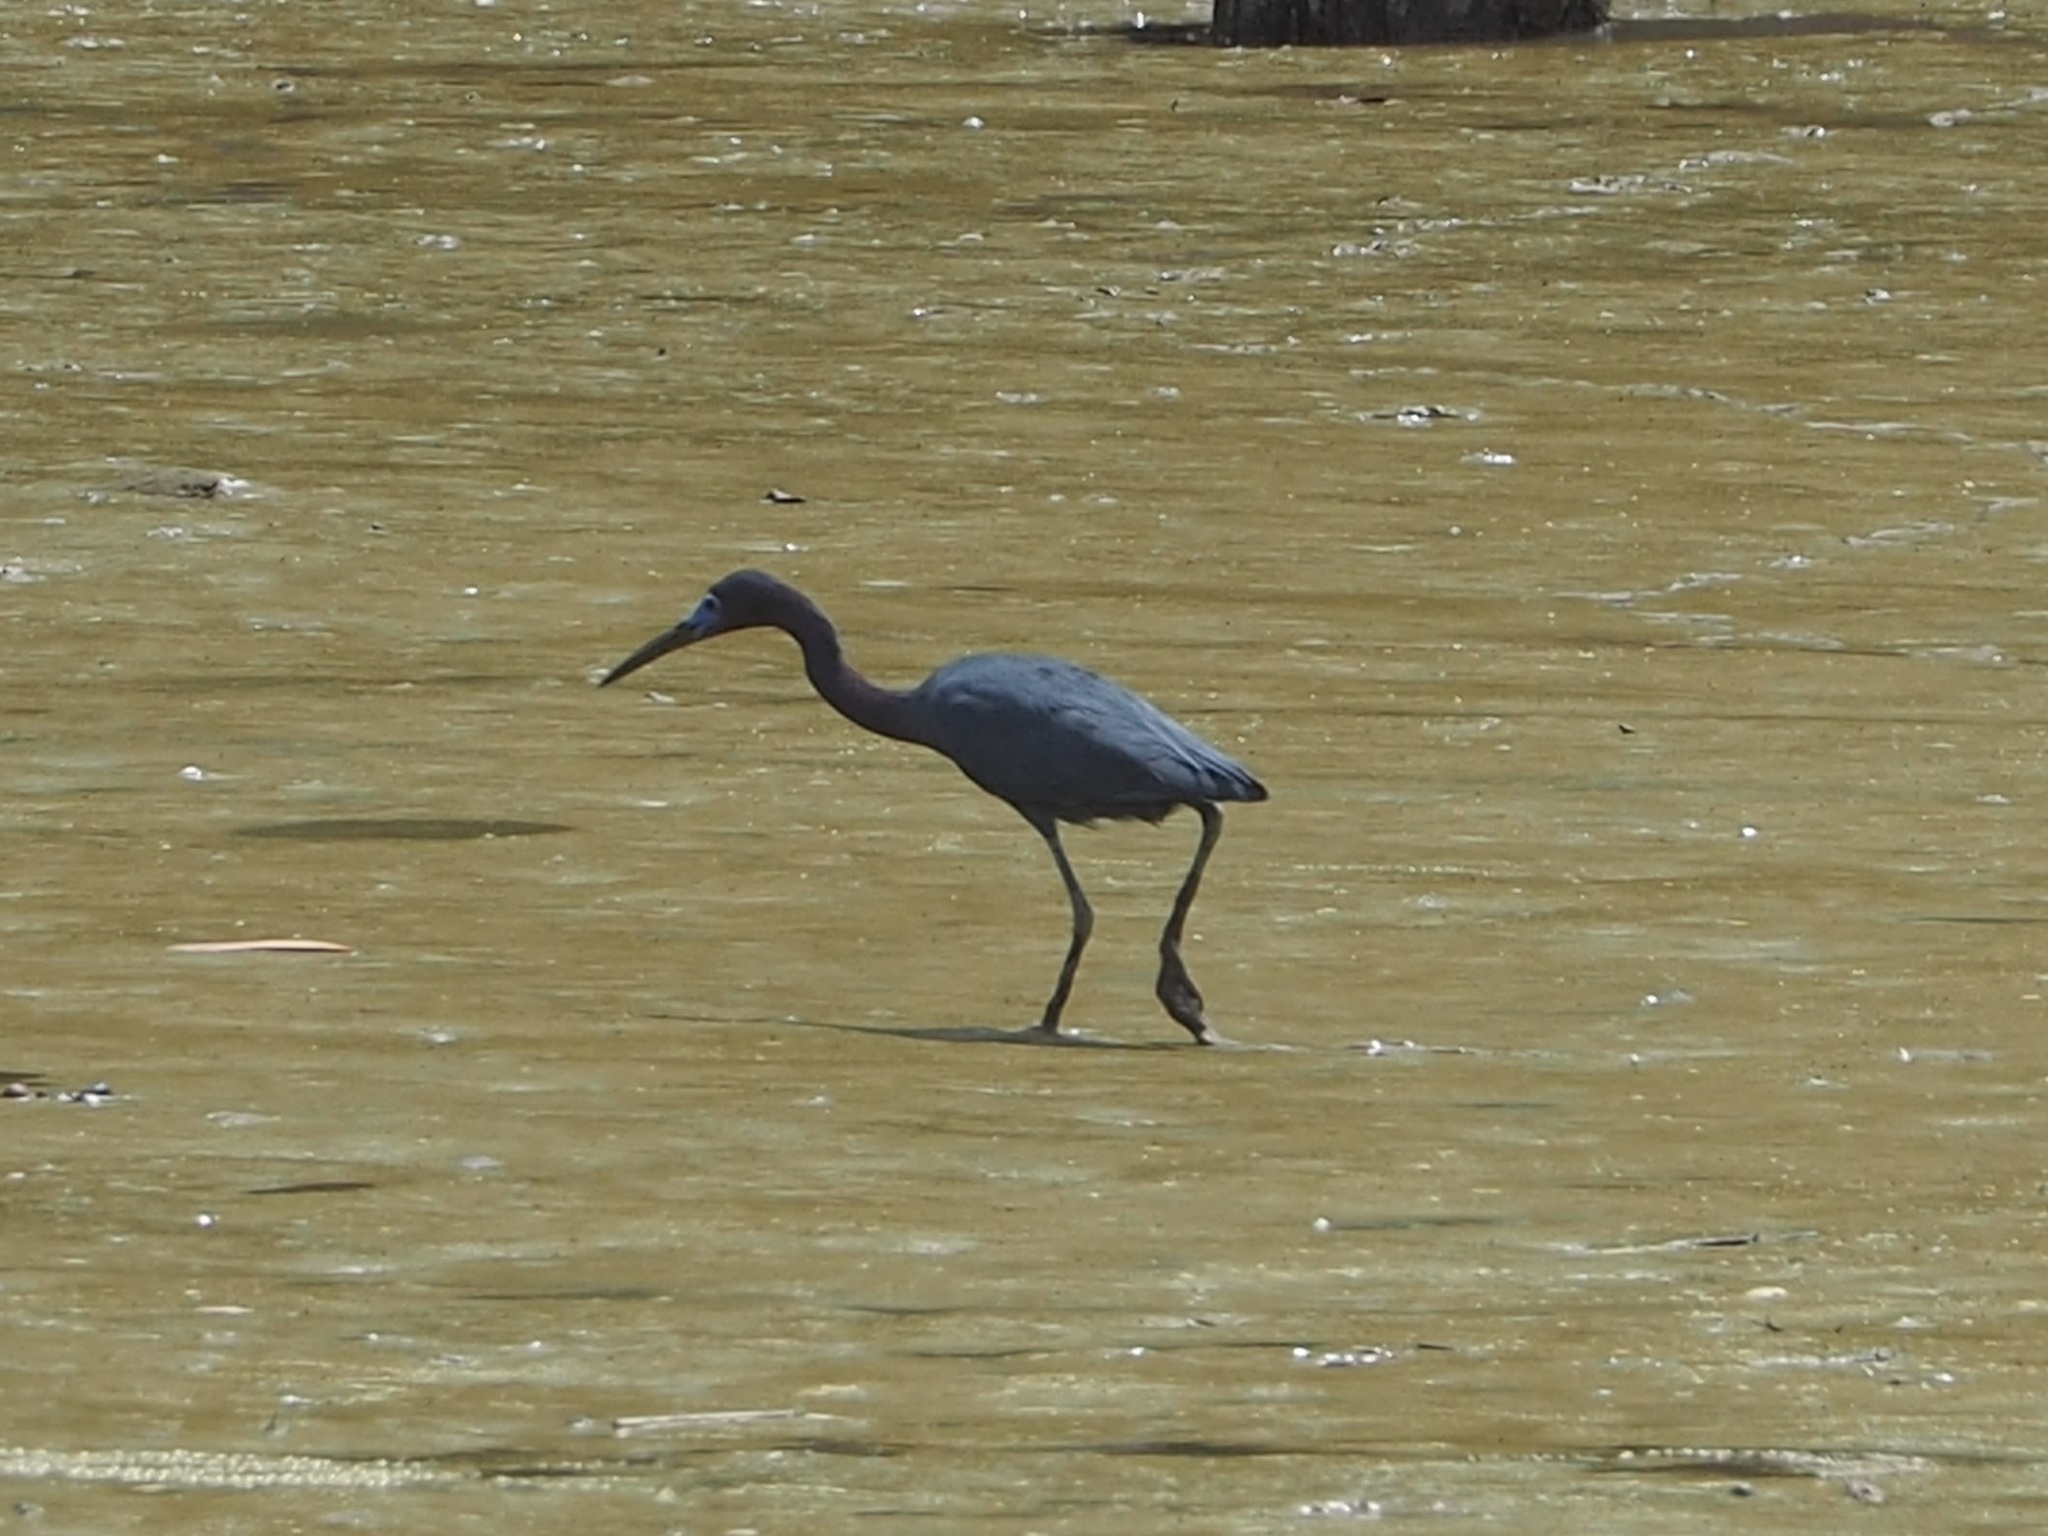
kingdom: Animalia
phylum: Chordata
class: Aves
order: Pelecaniformes
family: Ardeidae
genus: Egretta
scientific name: Egretta caerulea
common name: Little blue heron
